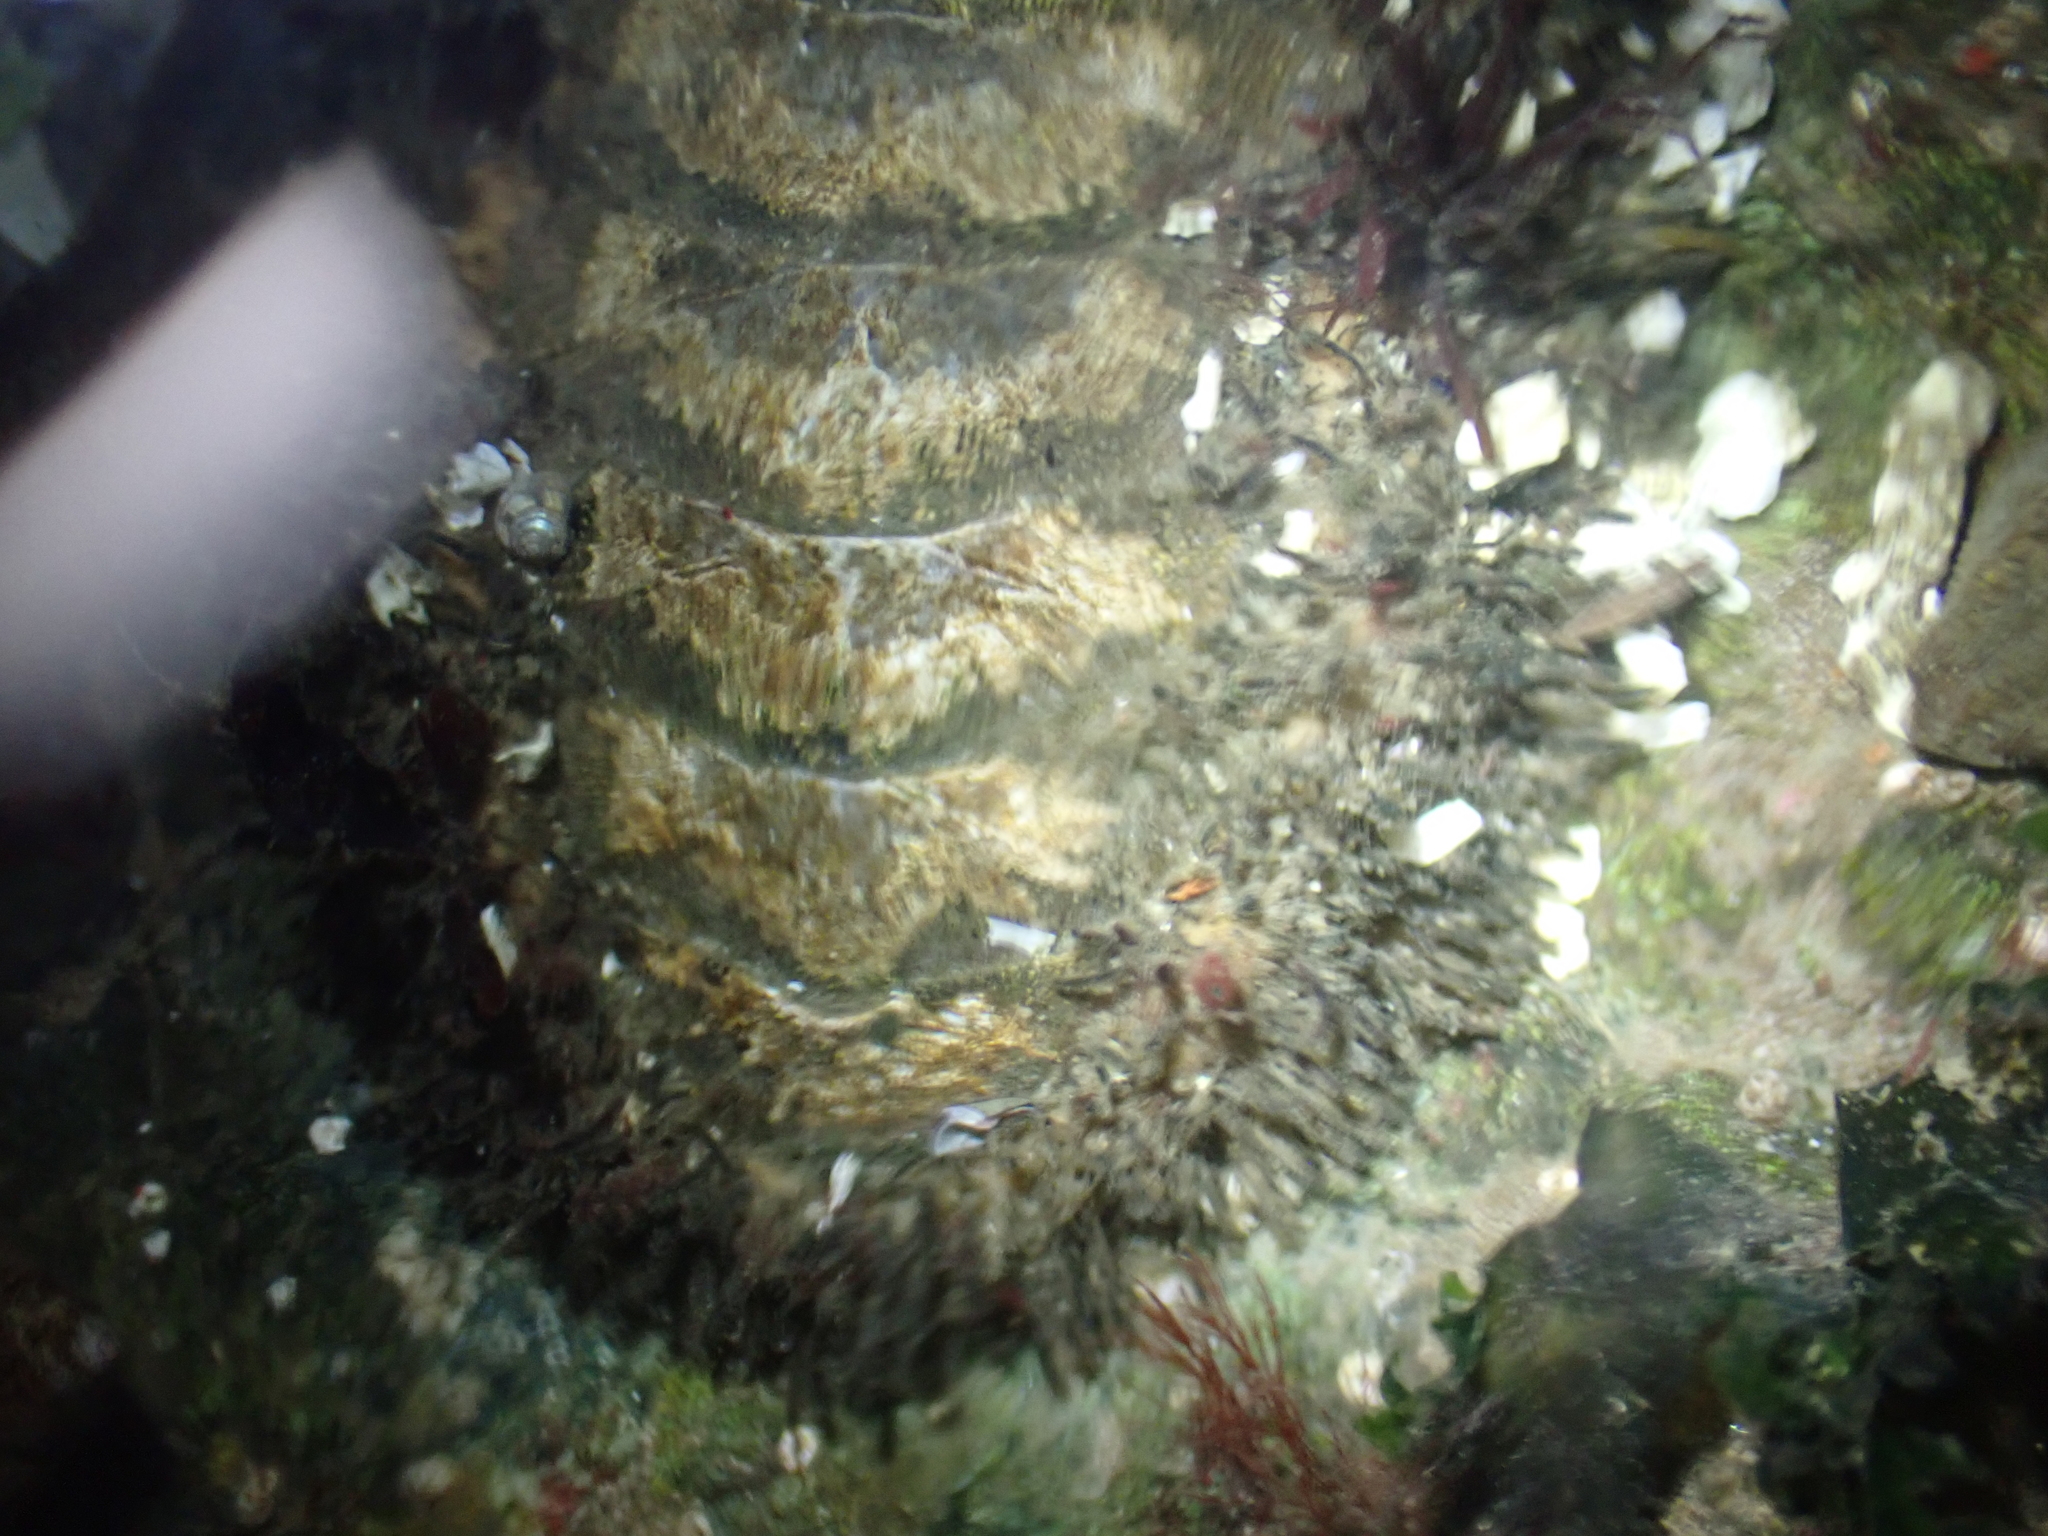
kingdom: Animalia
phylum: Mollusca
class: Polyplacophora
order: Chitonida
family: Mopaliidae
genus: Mopalia
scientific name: Mopalia muscosa
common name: Mossy chiton
